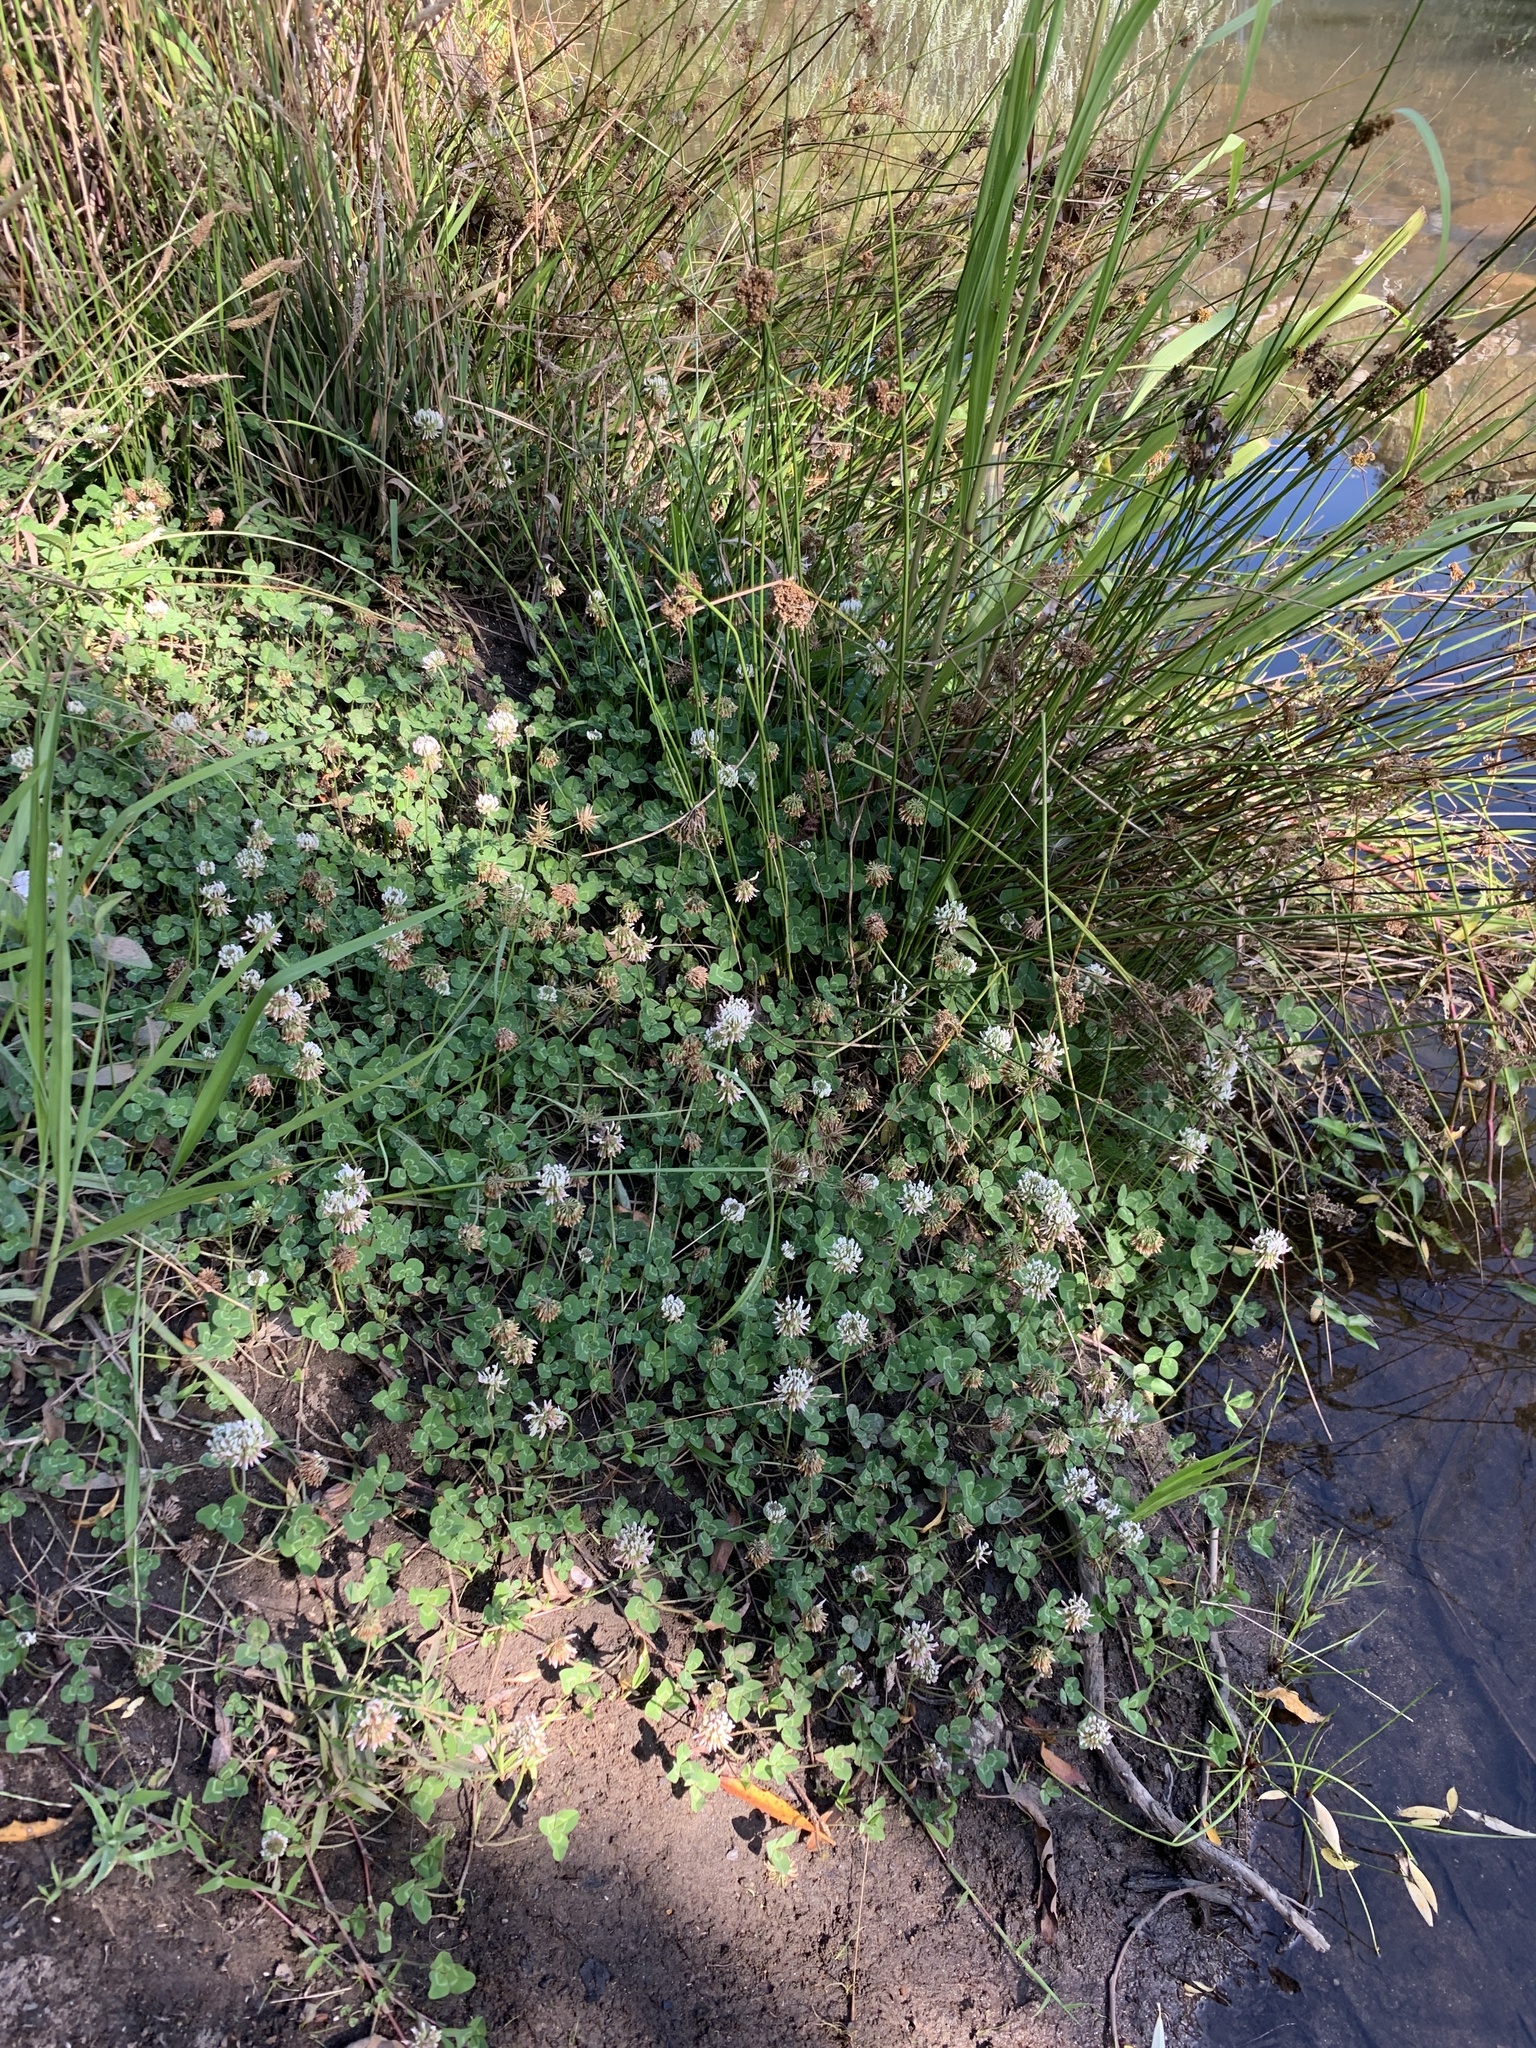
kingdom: Plantae
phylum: Tracheophyta
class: Magnoliopsida
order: Fabales
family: Fabaceae
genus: Trifolium
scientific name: Trifolium repens
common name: White clover
